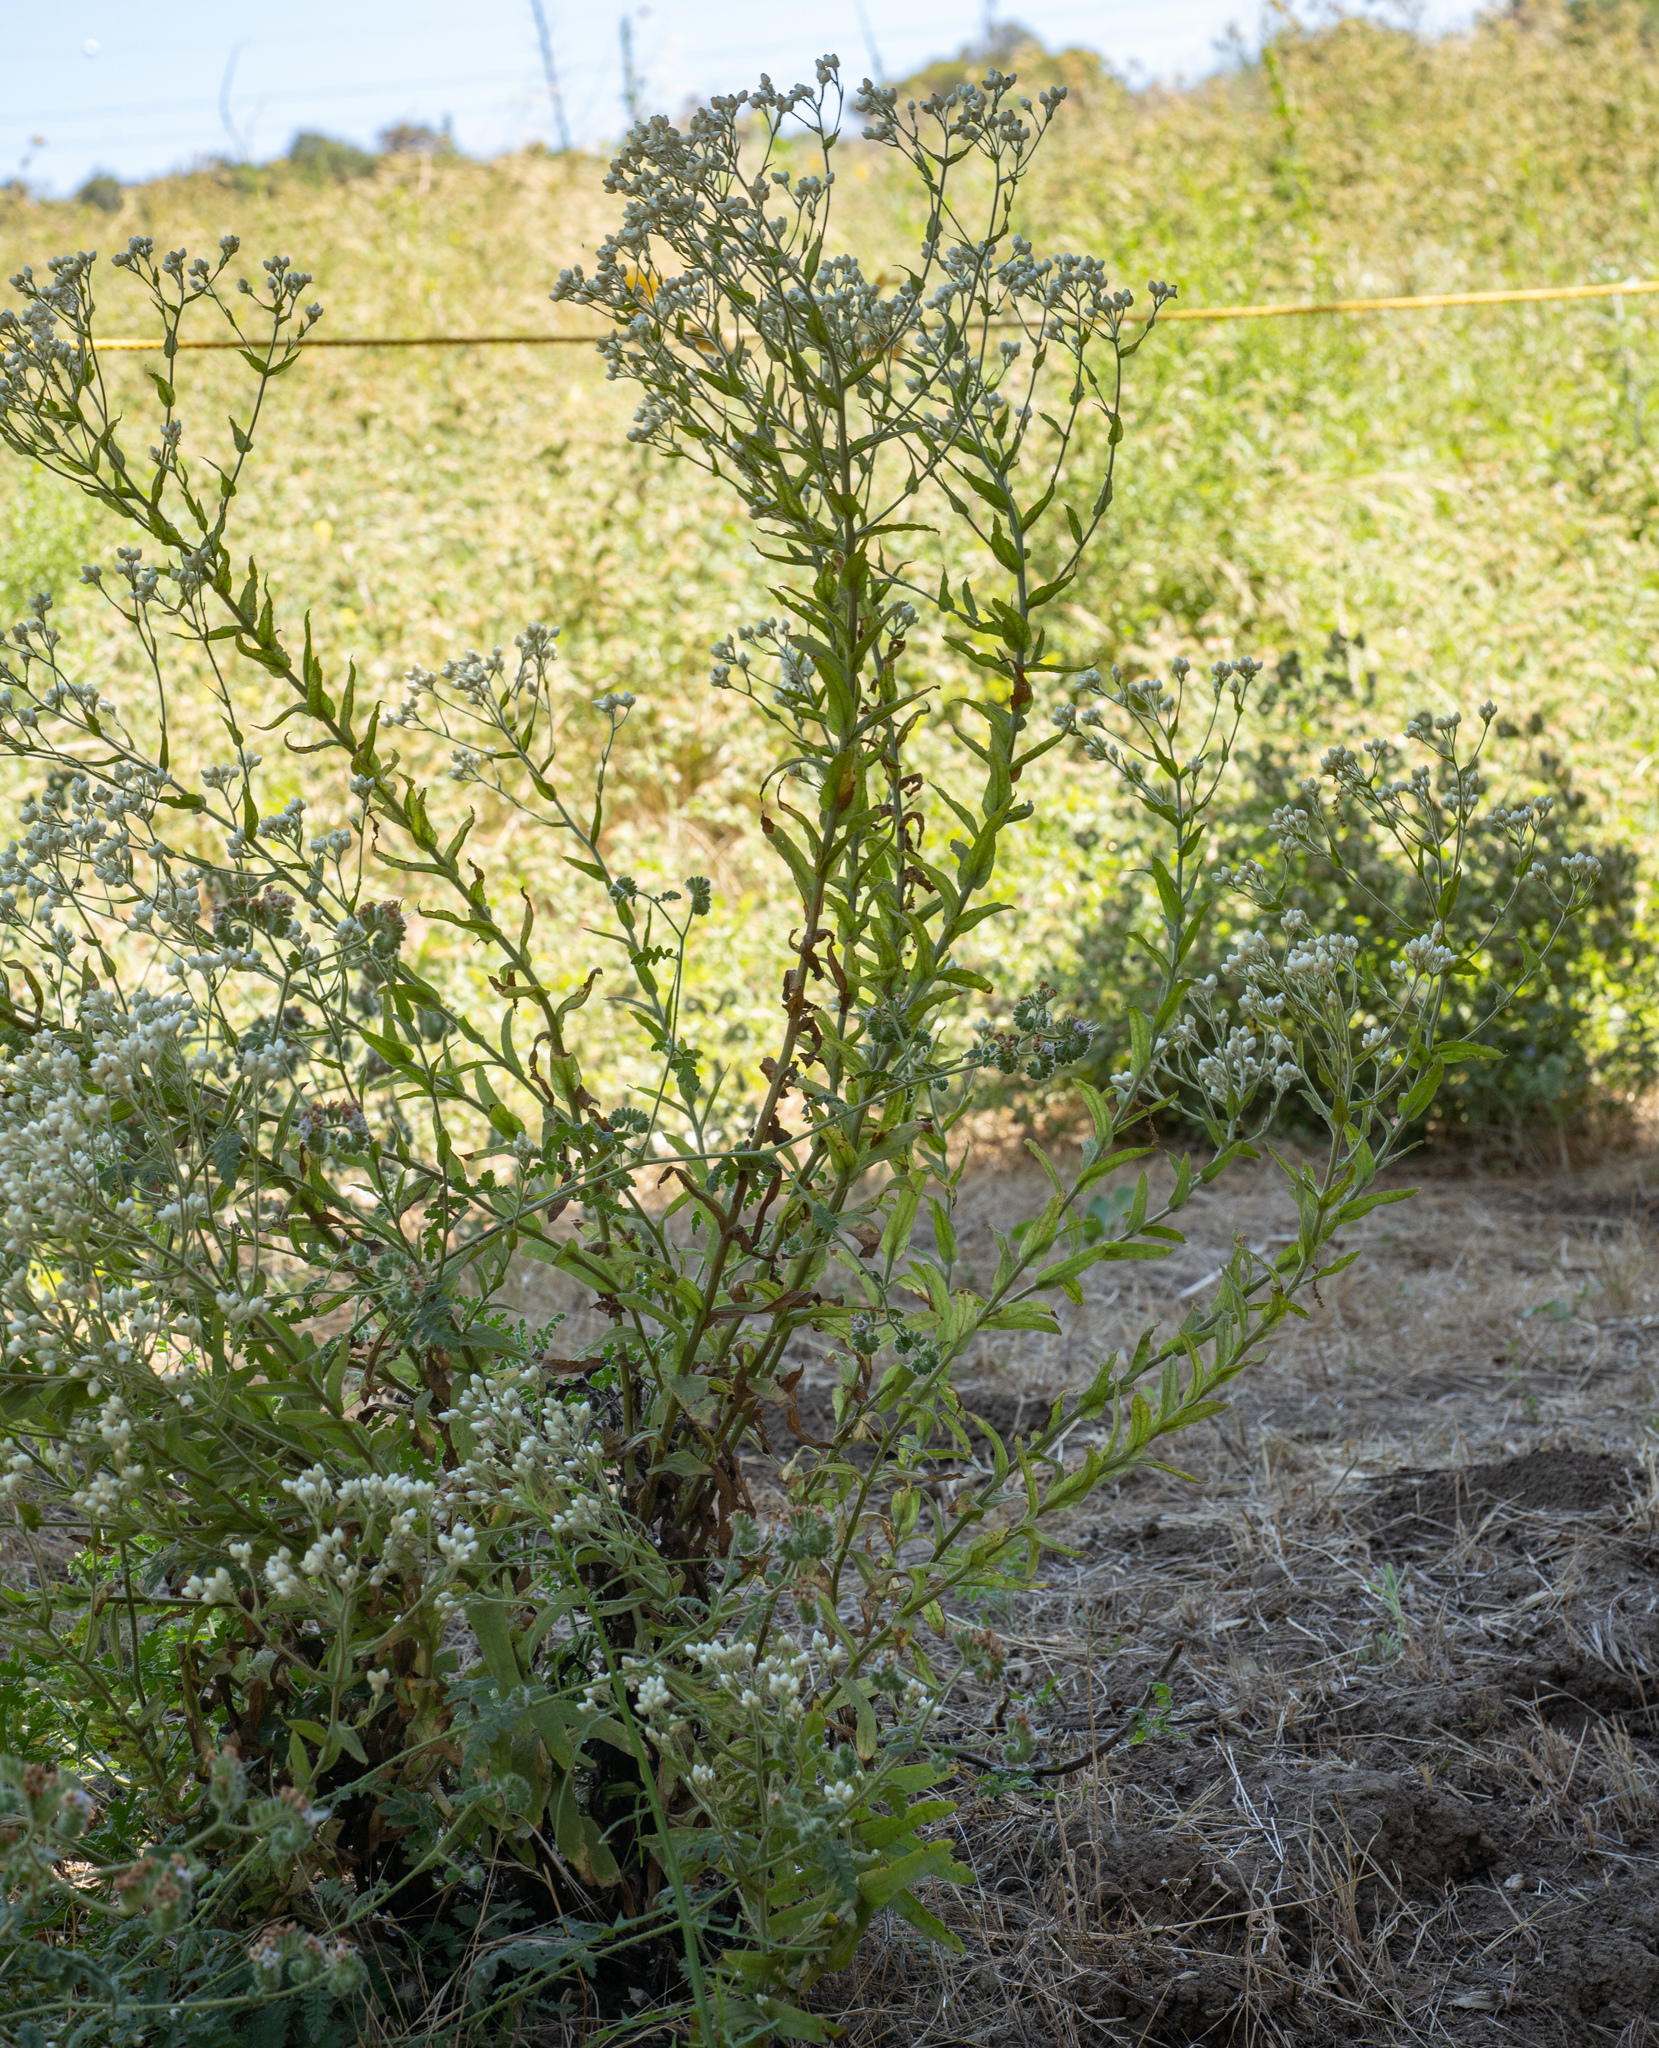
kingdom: Plantae
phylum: Tracheophyta
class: Magnoliopsida
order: Asterales
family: Asteraceae
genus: Pseudognaphalium
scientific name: Pseudognaphalium californicum
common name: California rabbit-tobacco
